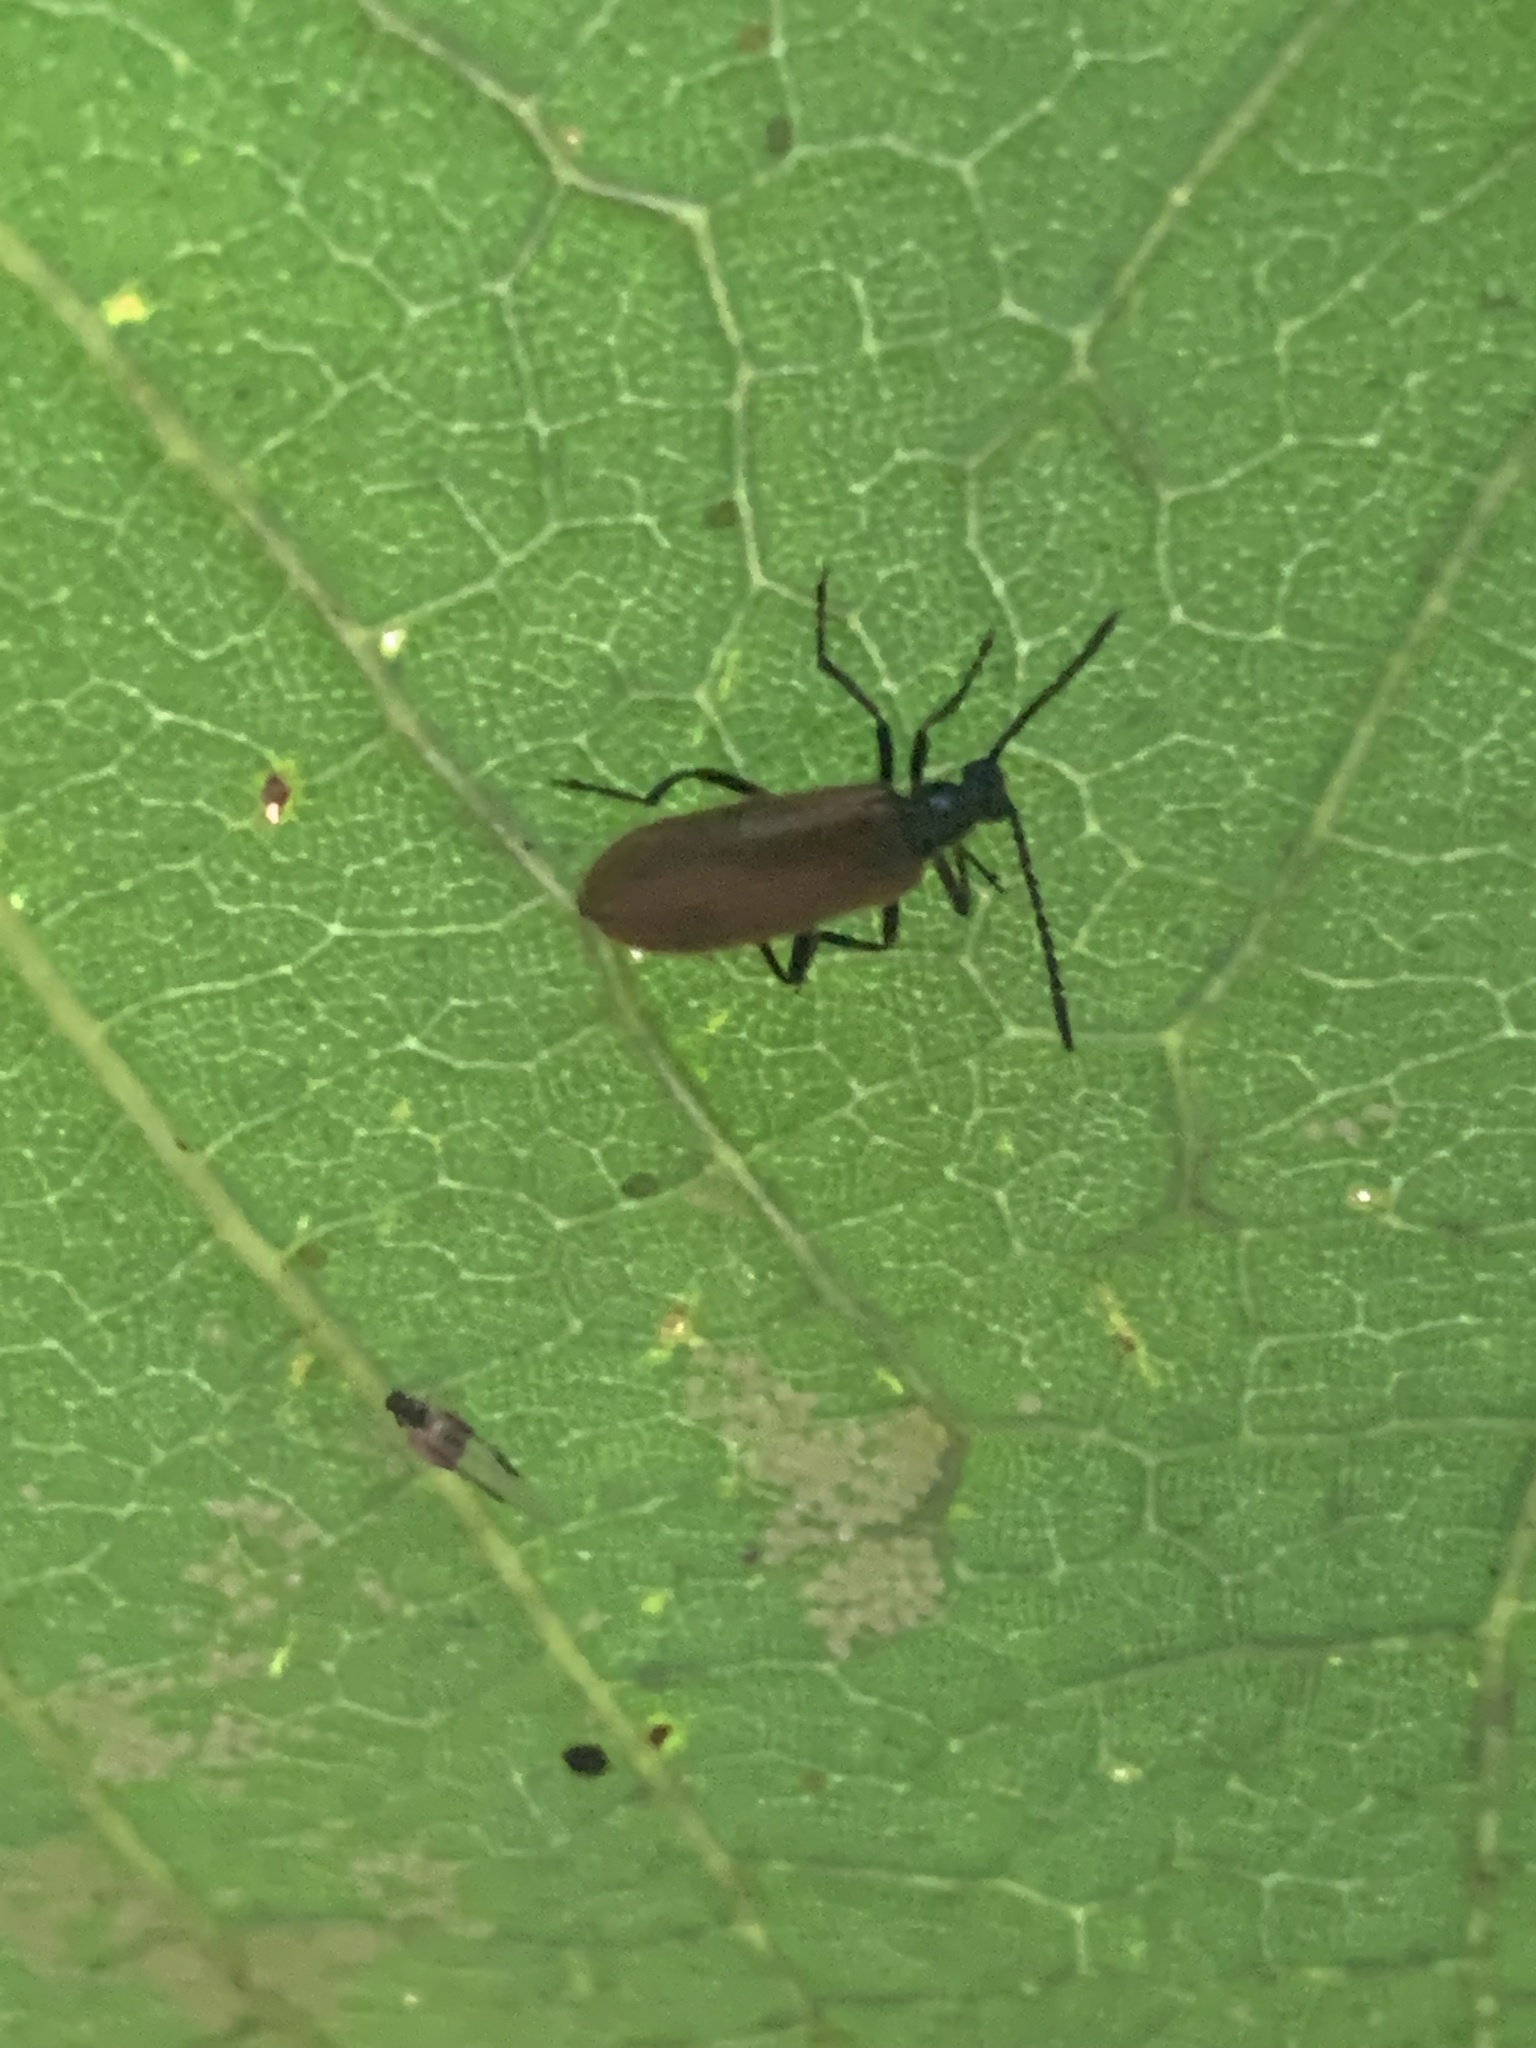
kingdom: Animalia
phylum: Arthropoda
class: Insecta
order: Coleoptera
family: Tenebrionidae
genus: Lagria
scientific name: Lagria hirta
